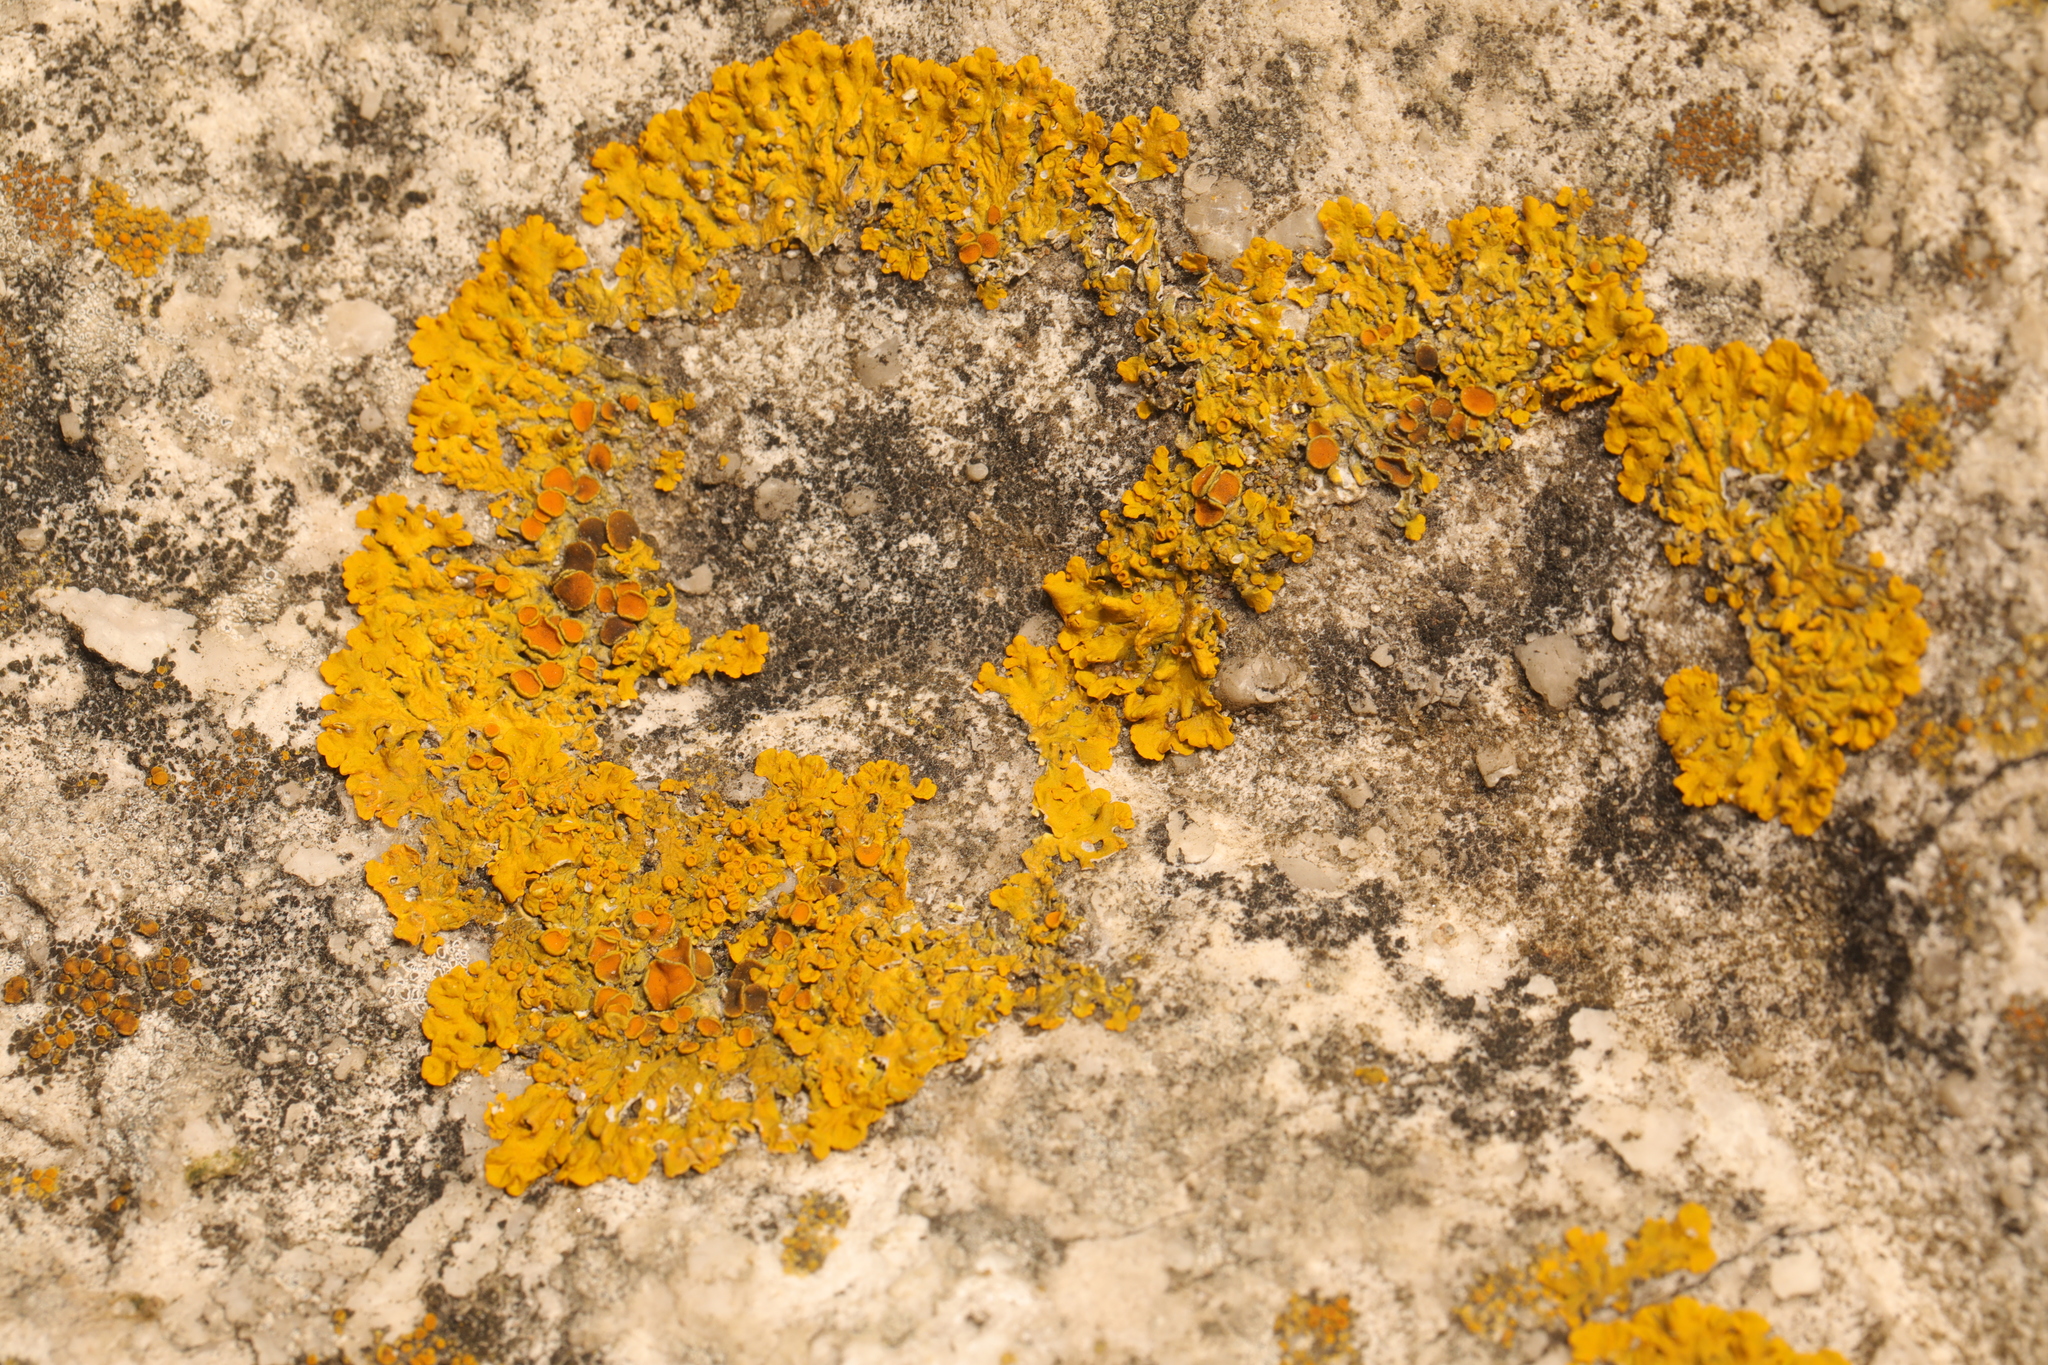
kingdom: Fungi
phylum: Ascomycota
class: Lecanoromycetes
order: Teloschistales
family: Teloschistaceae
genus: Xanthoria
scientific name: Xanthoria parietina
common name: Common orange lichen
